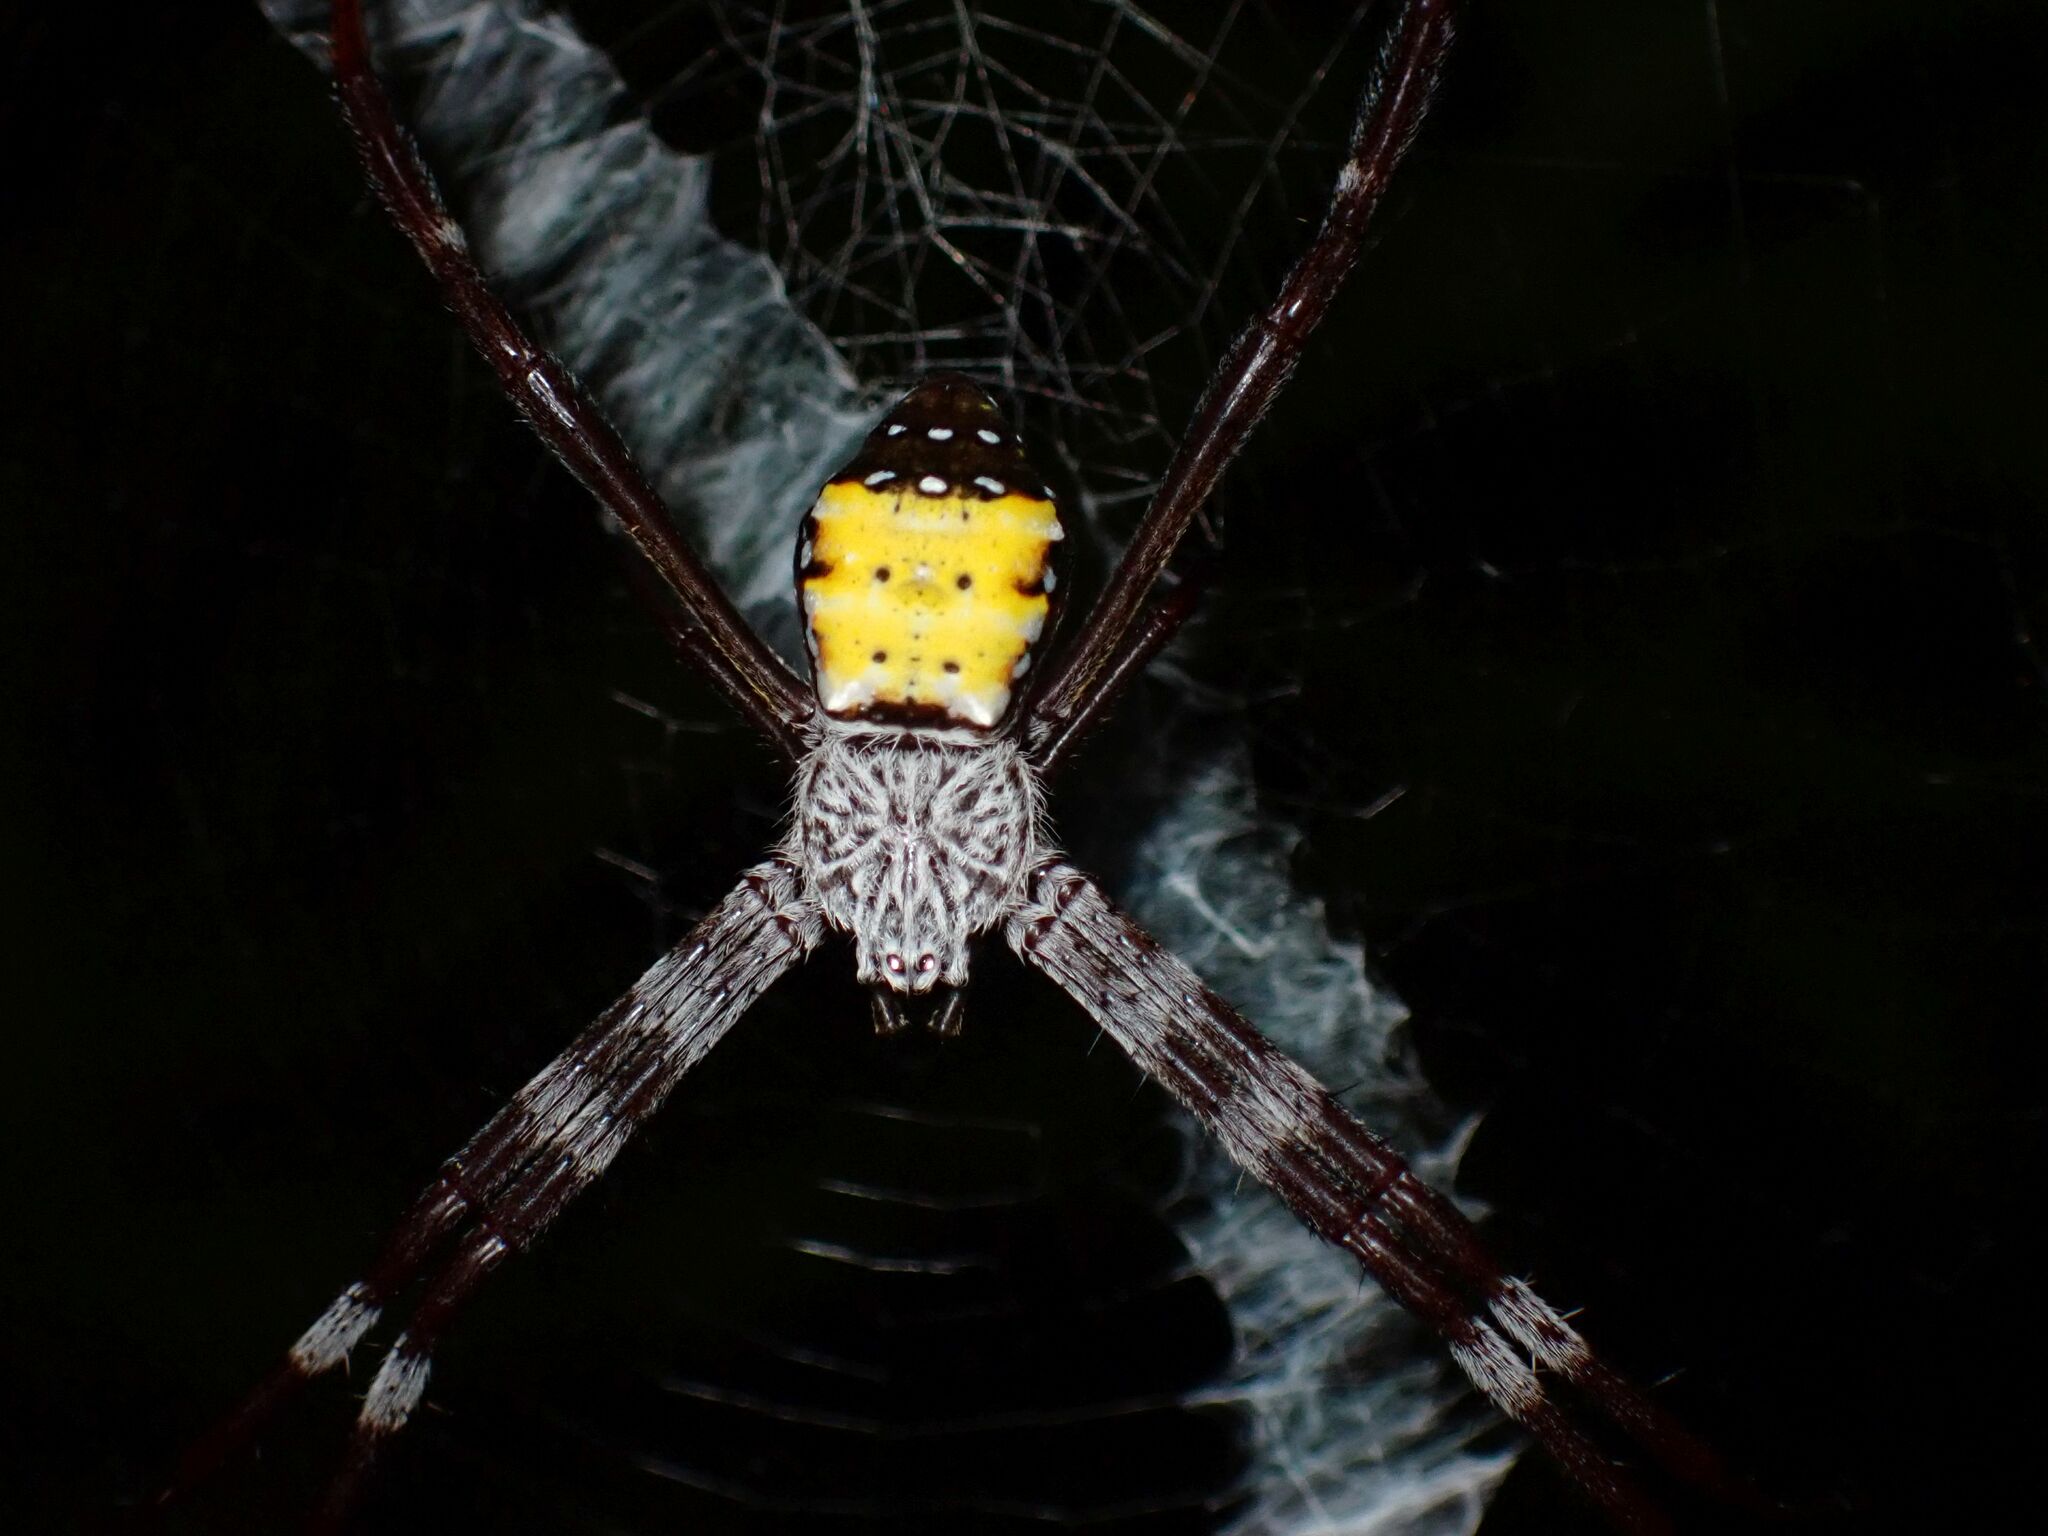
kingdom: Animalia
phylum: Arthropoda
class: Arachnida
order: Araneae
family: Araneidae
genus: Argiope
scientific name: Argiope aetherea
